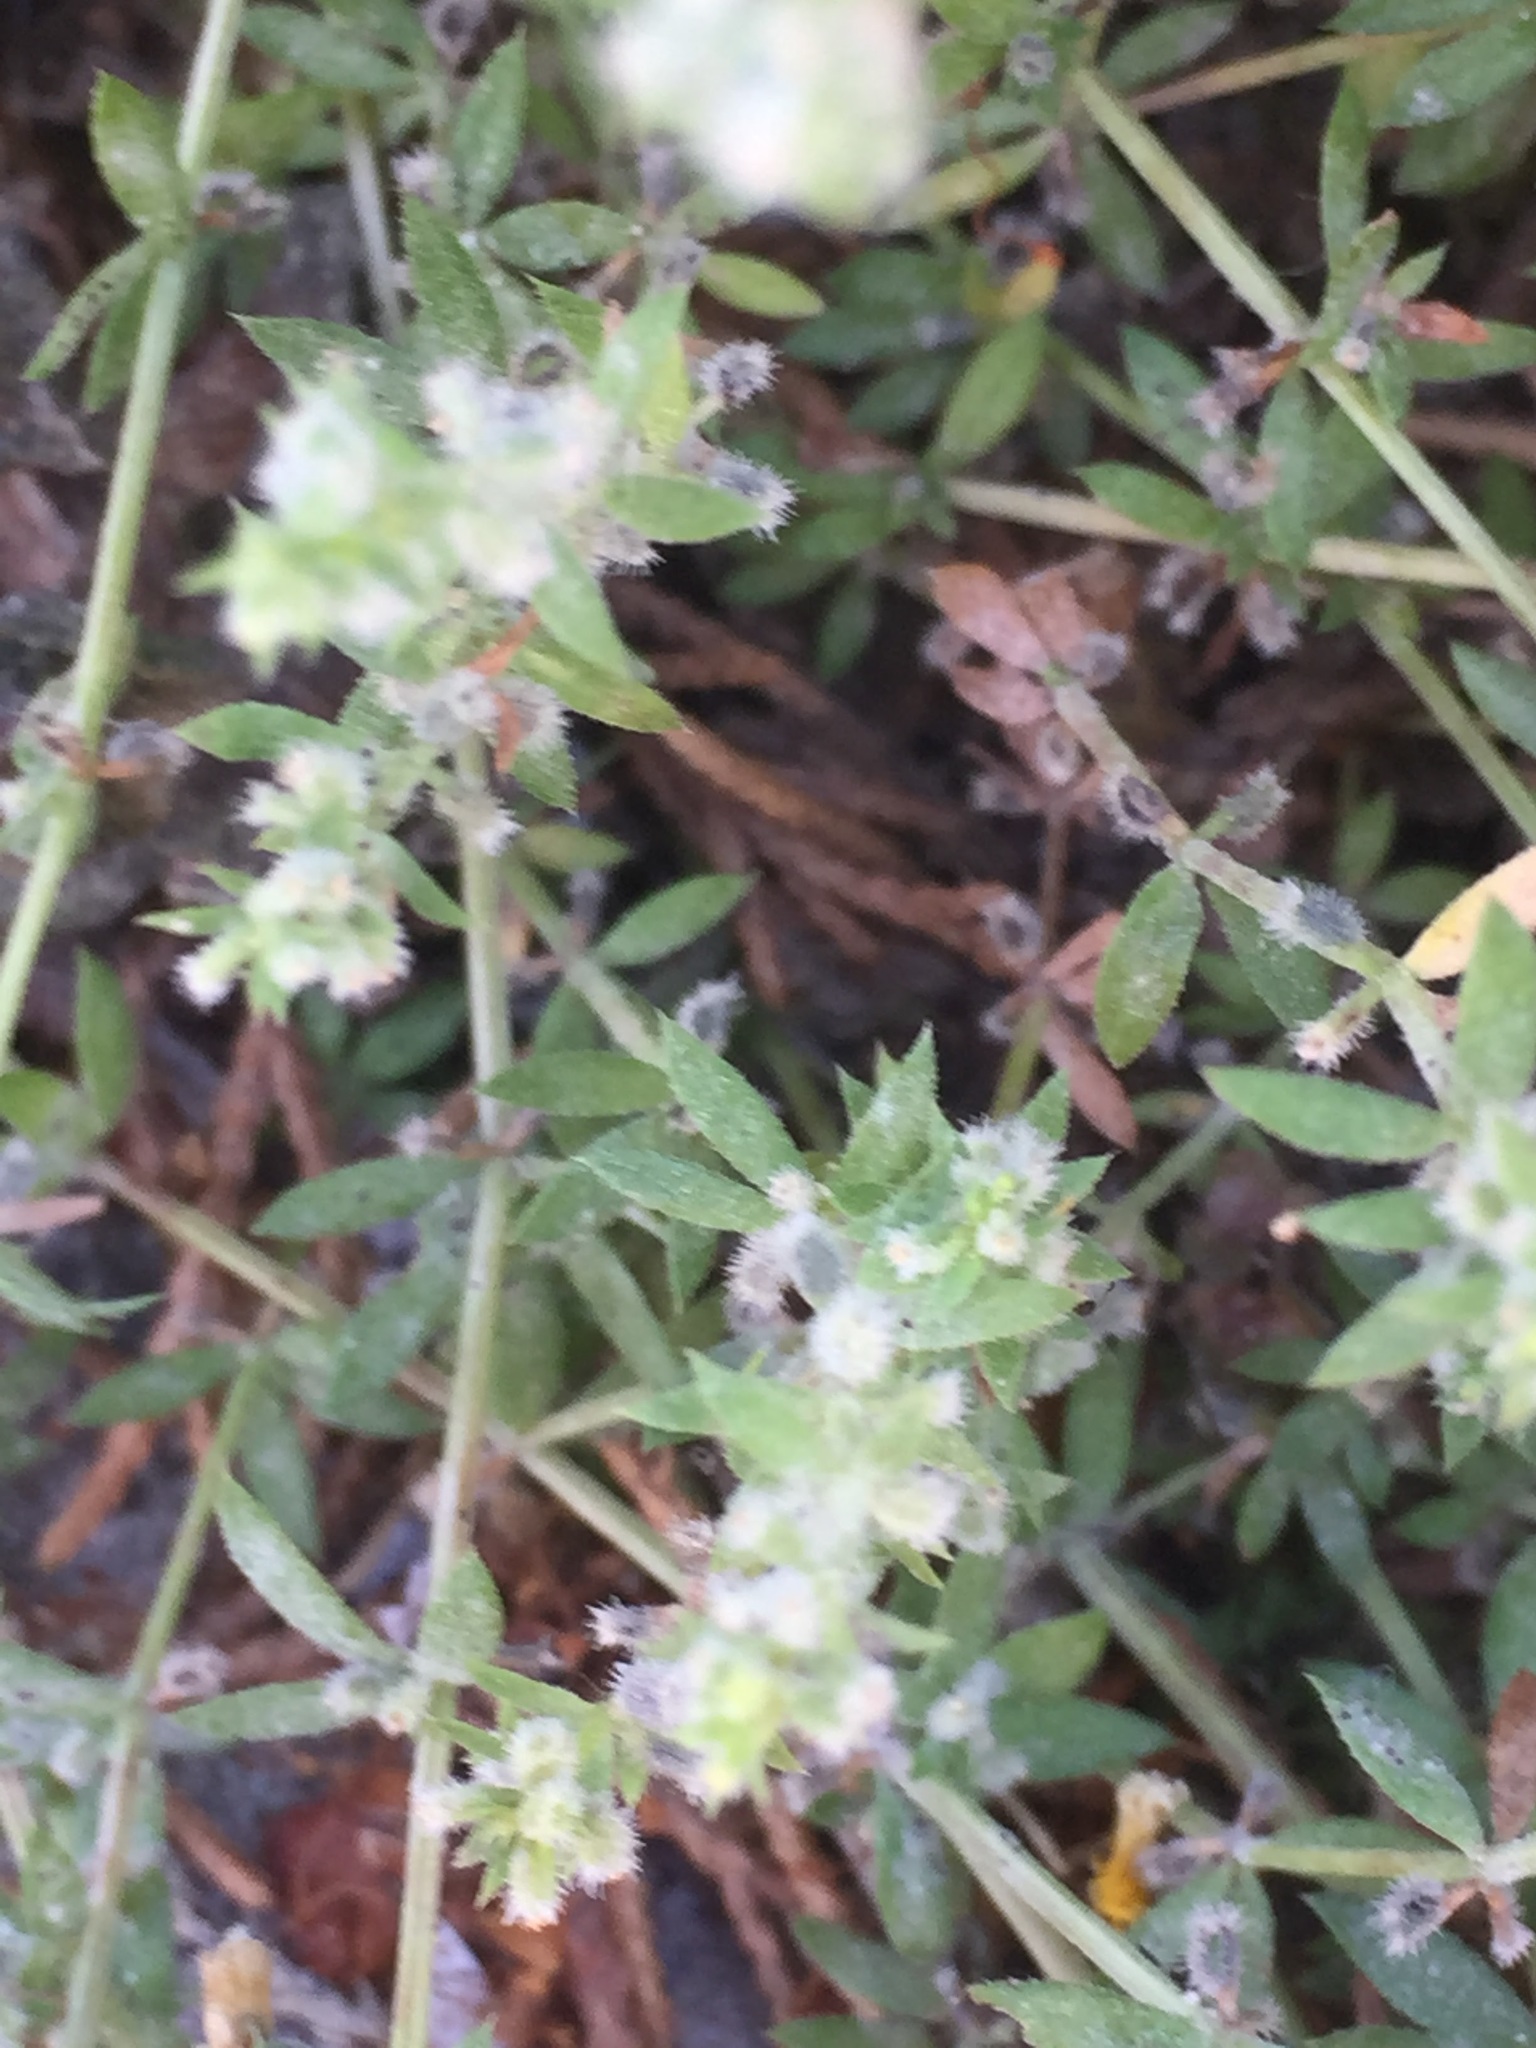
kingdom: Plantae
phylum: Tracheophyta
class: Magnoliopsida
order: Gentianales
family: Rubiaceae
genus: Galium
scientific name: Galium murale
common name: Yellow wall bedstraw
